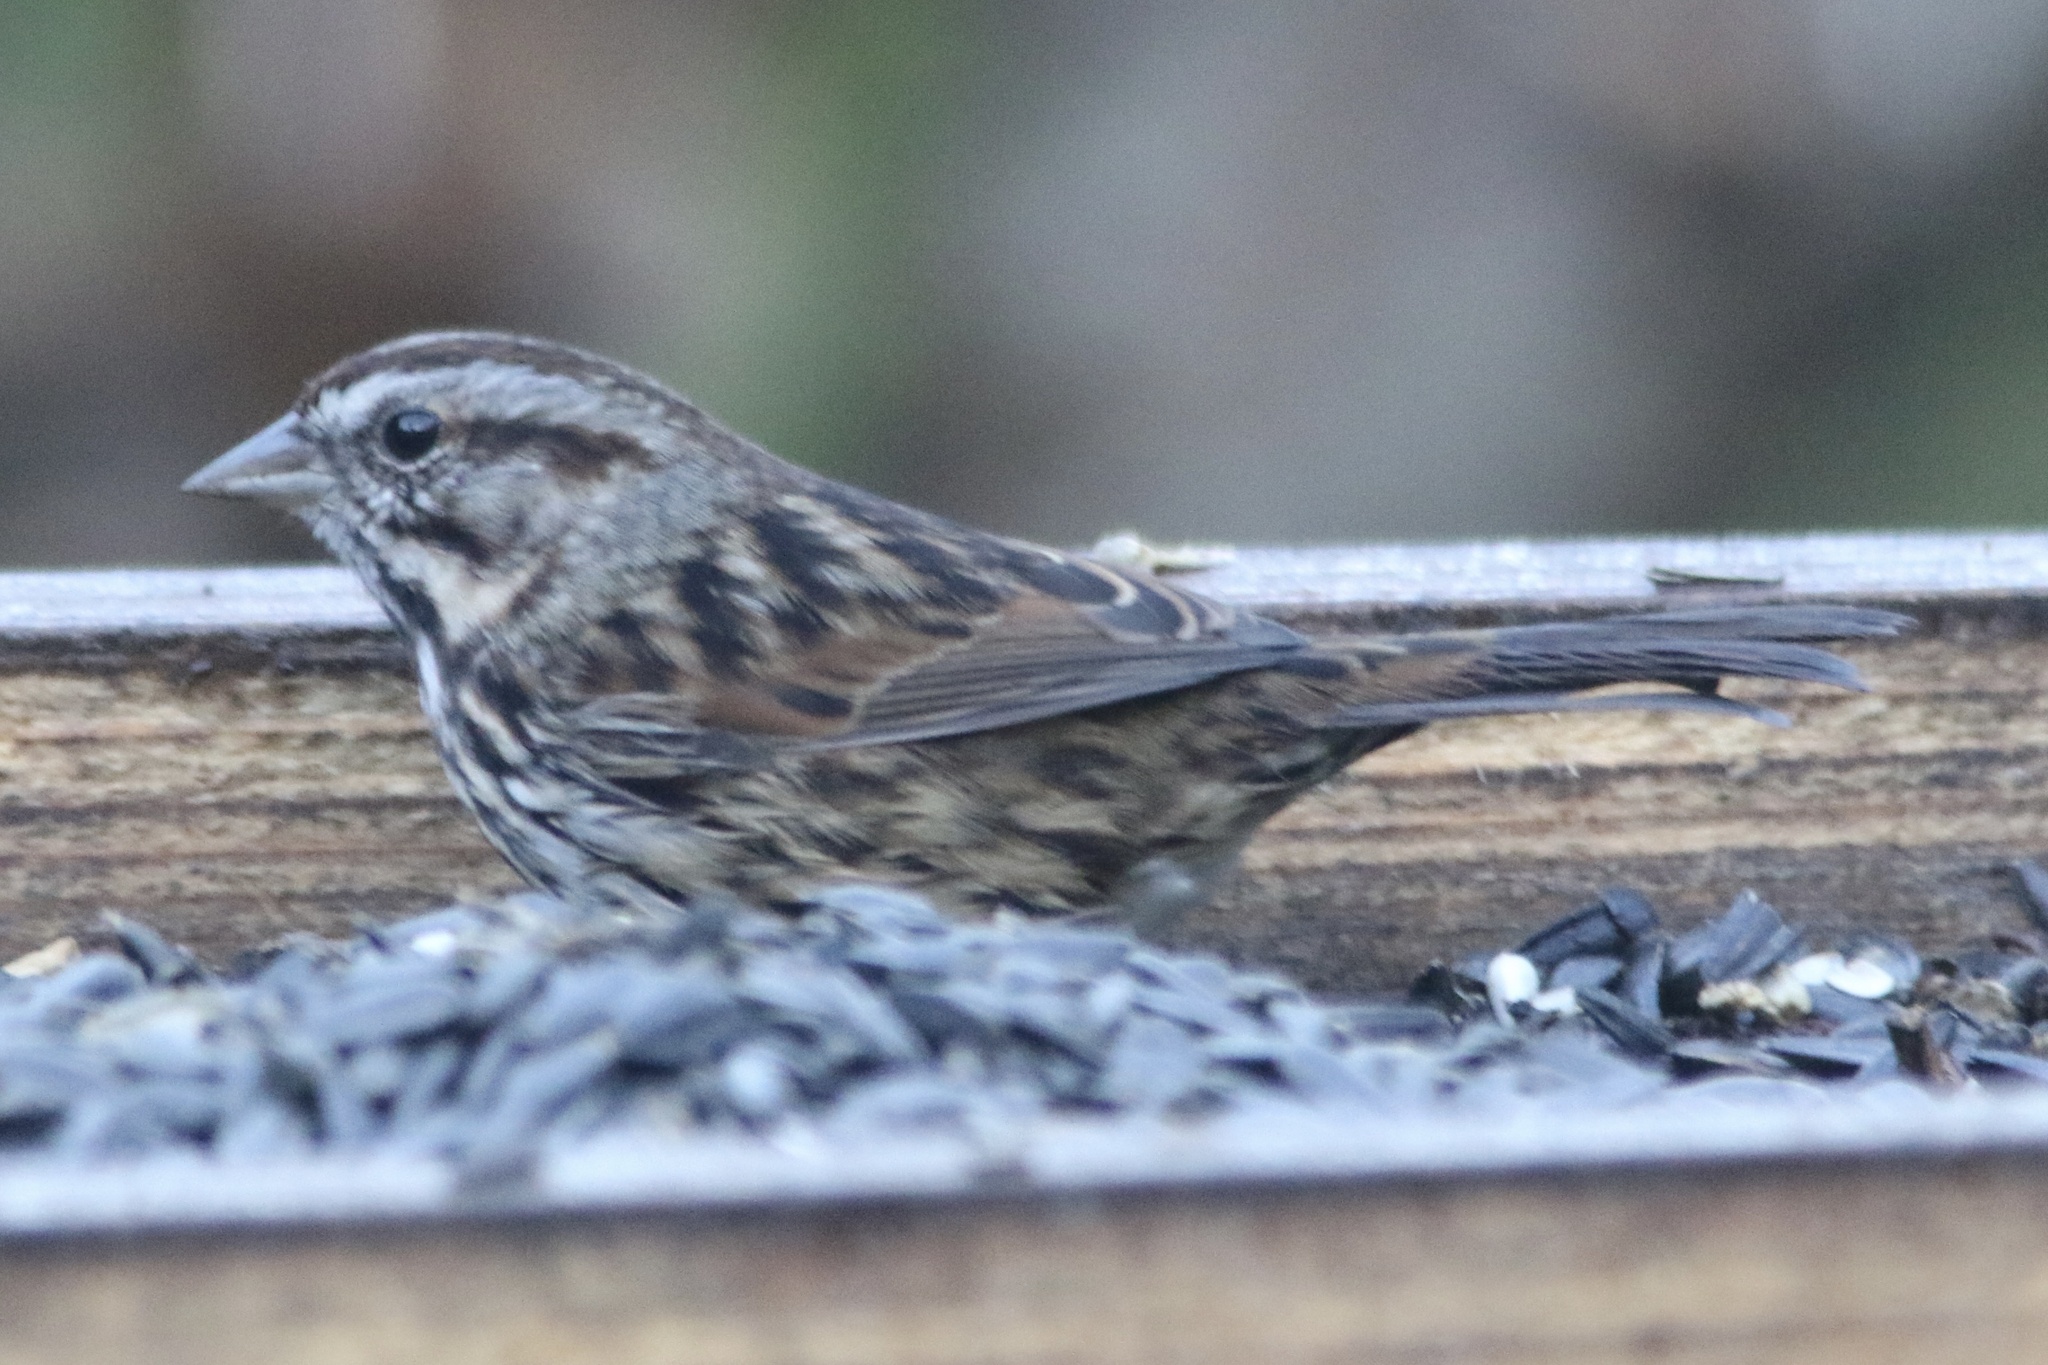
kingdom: Animalia
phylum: Chordata
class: Aves
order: Passeriformes
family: Passerellidae
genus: Melospiza
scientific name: Melospiza melodia
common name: Song sparrow
